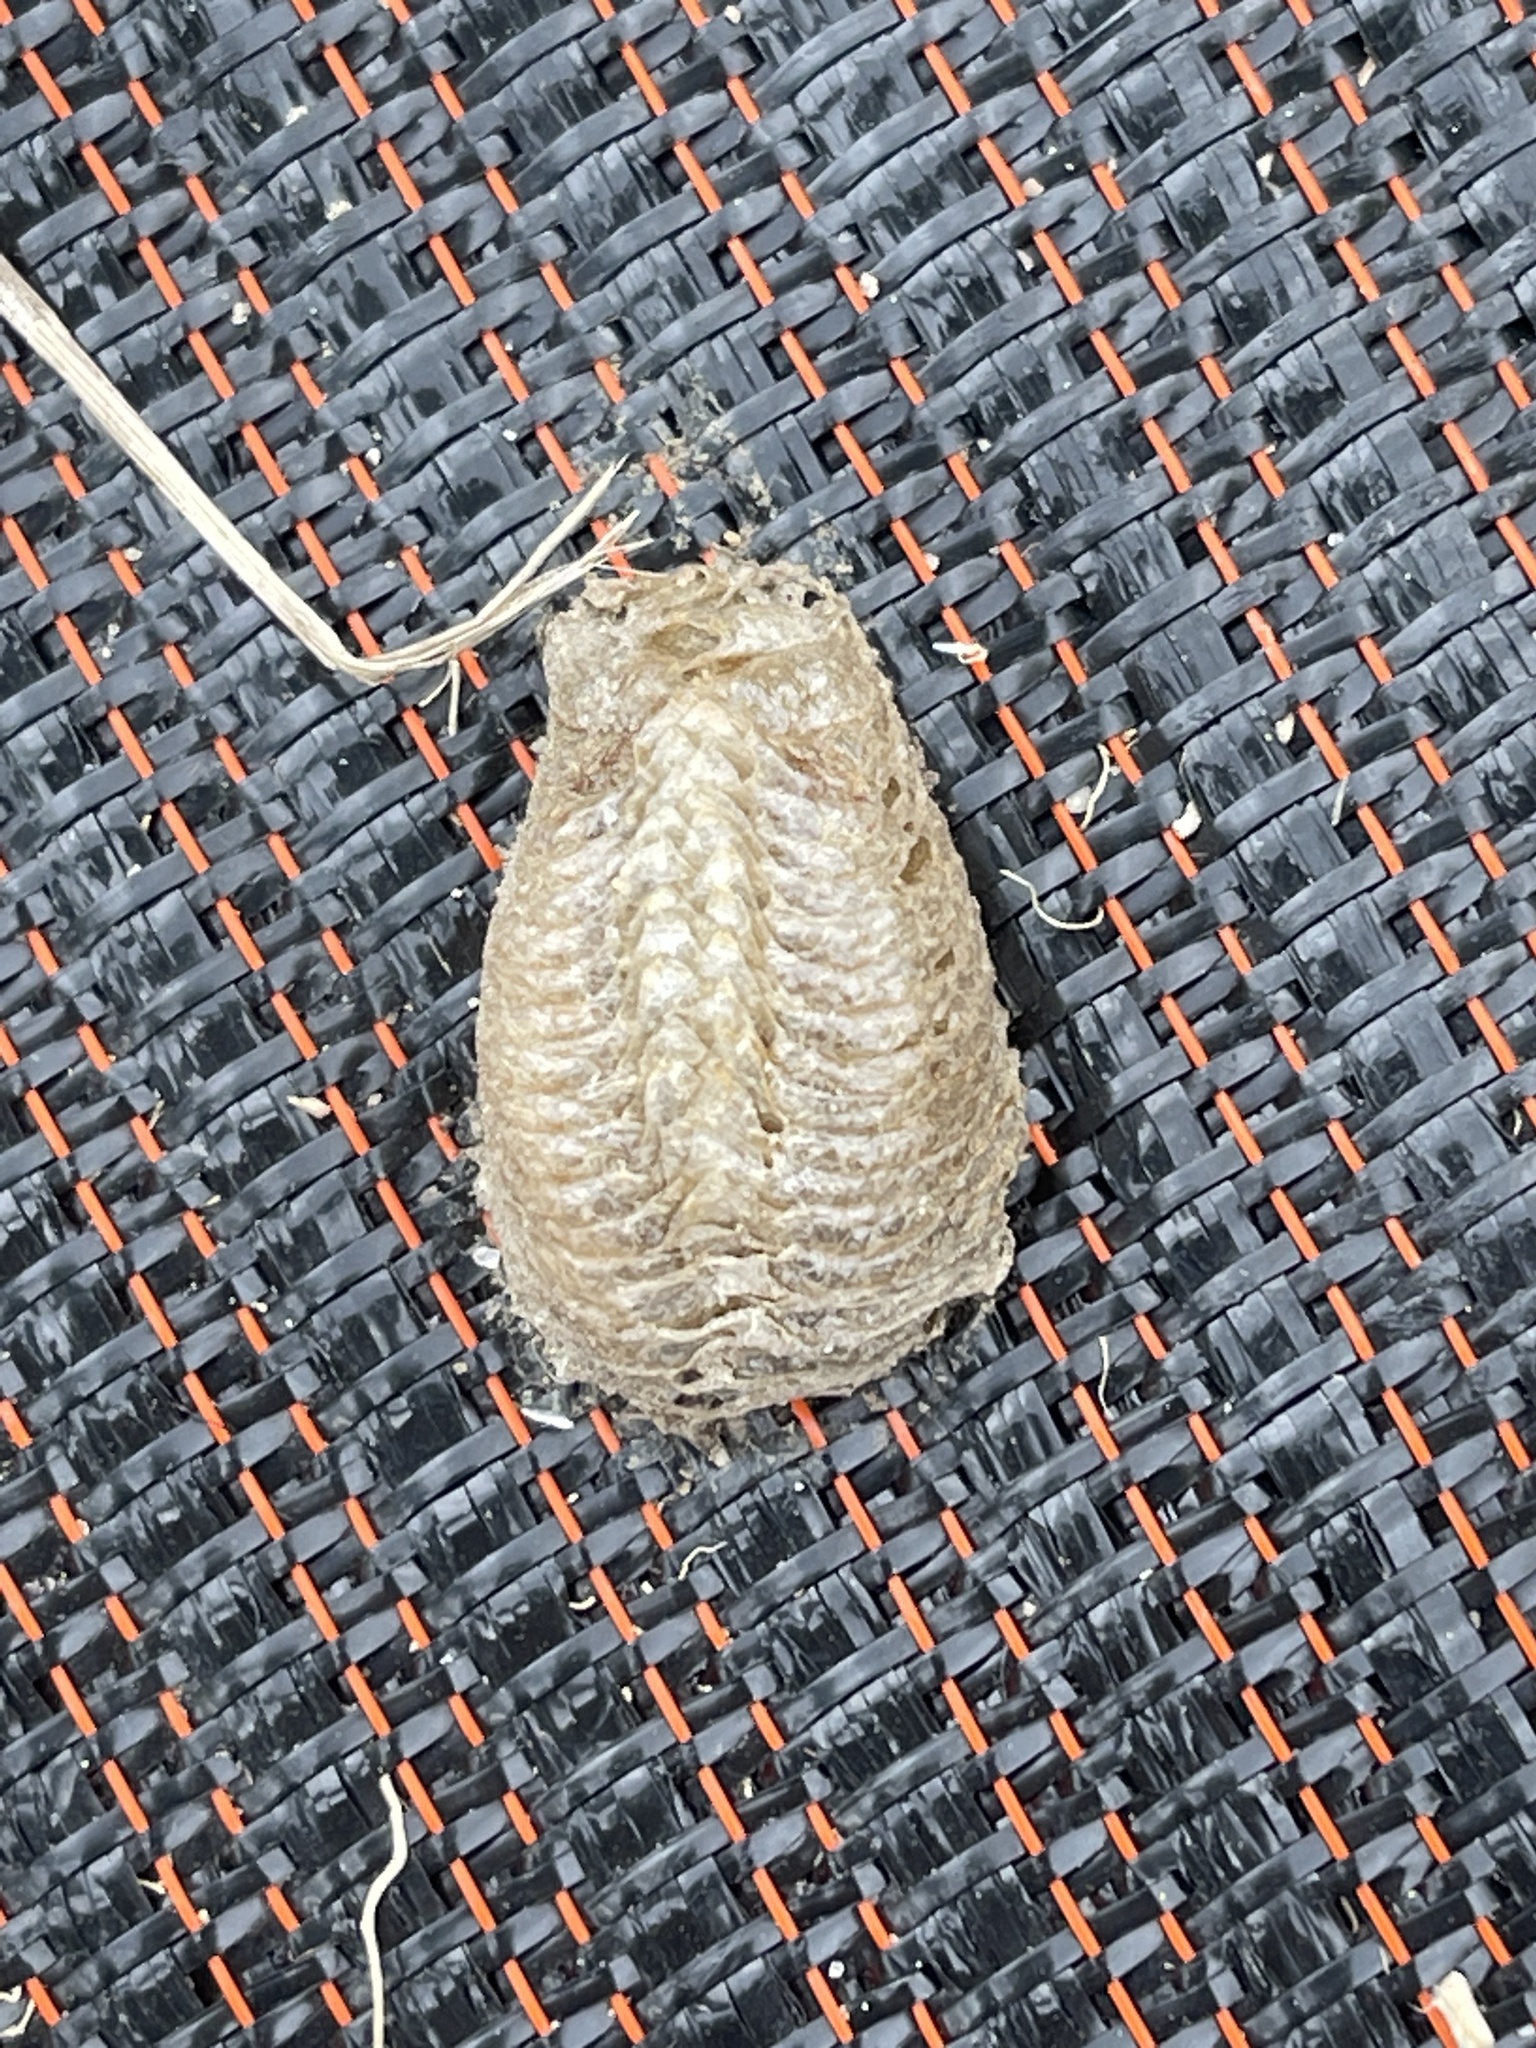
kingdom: Animalia
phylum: Arthropoda
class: Insecta
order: Mantodea
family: Mantidae
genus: Mantis
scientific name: Mantis religiosa
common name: Praying mantis
